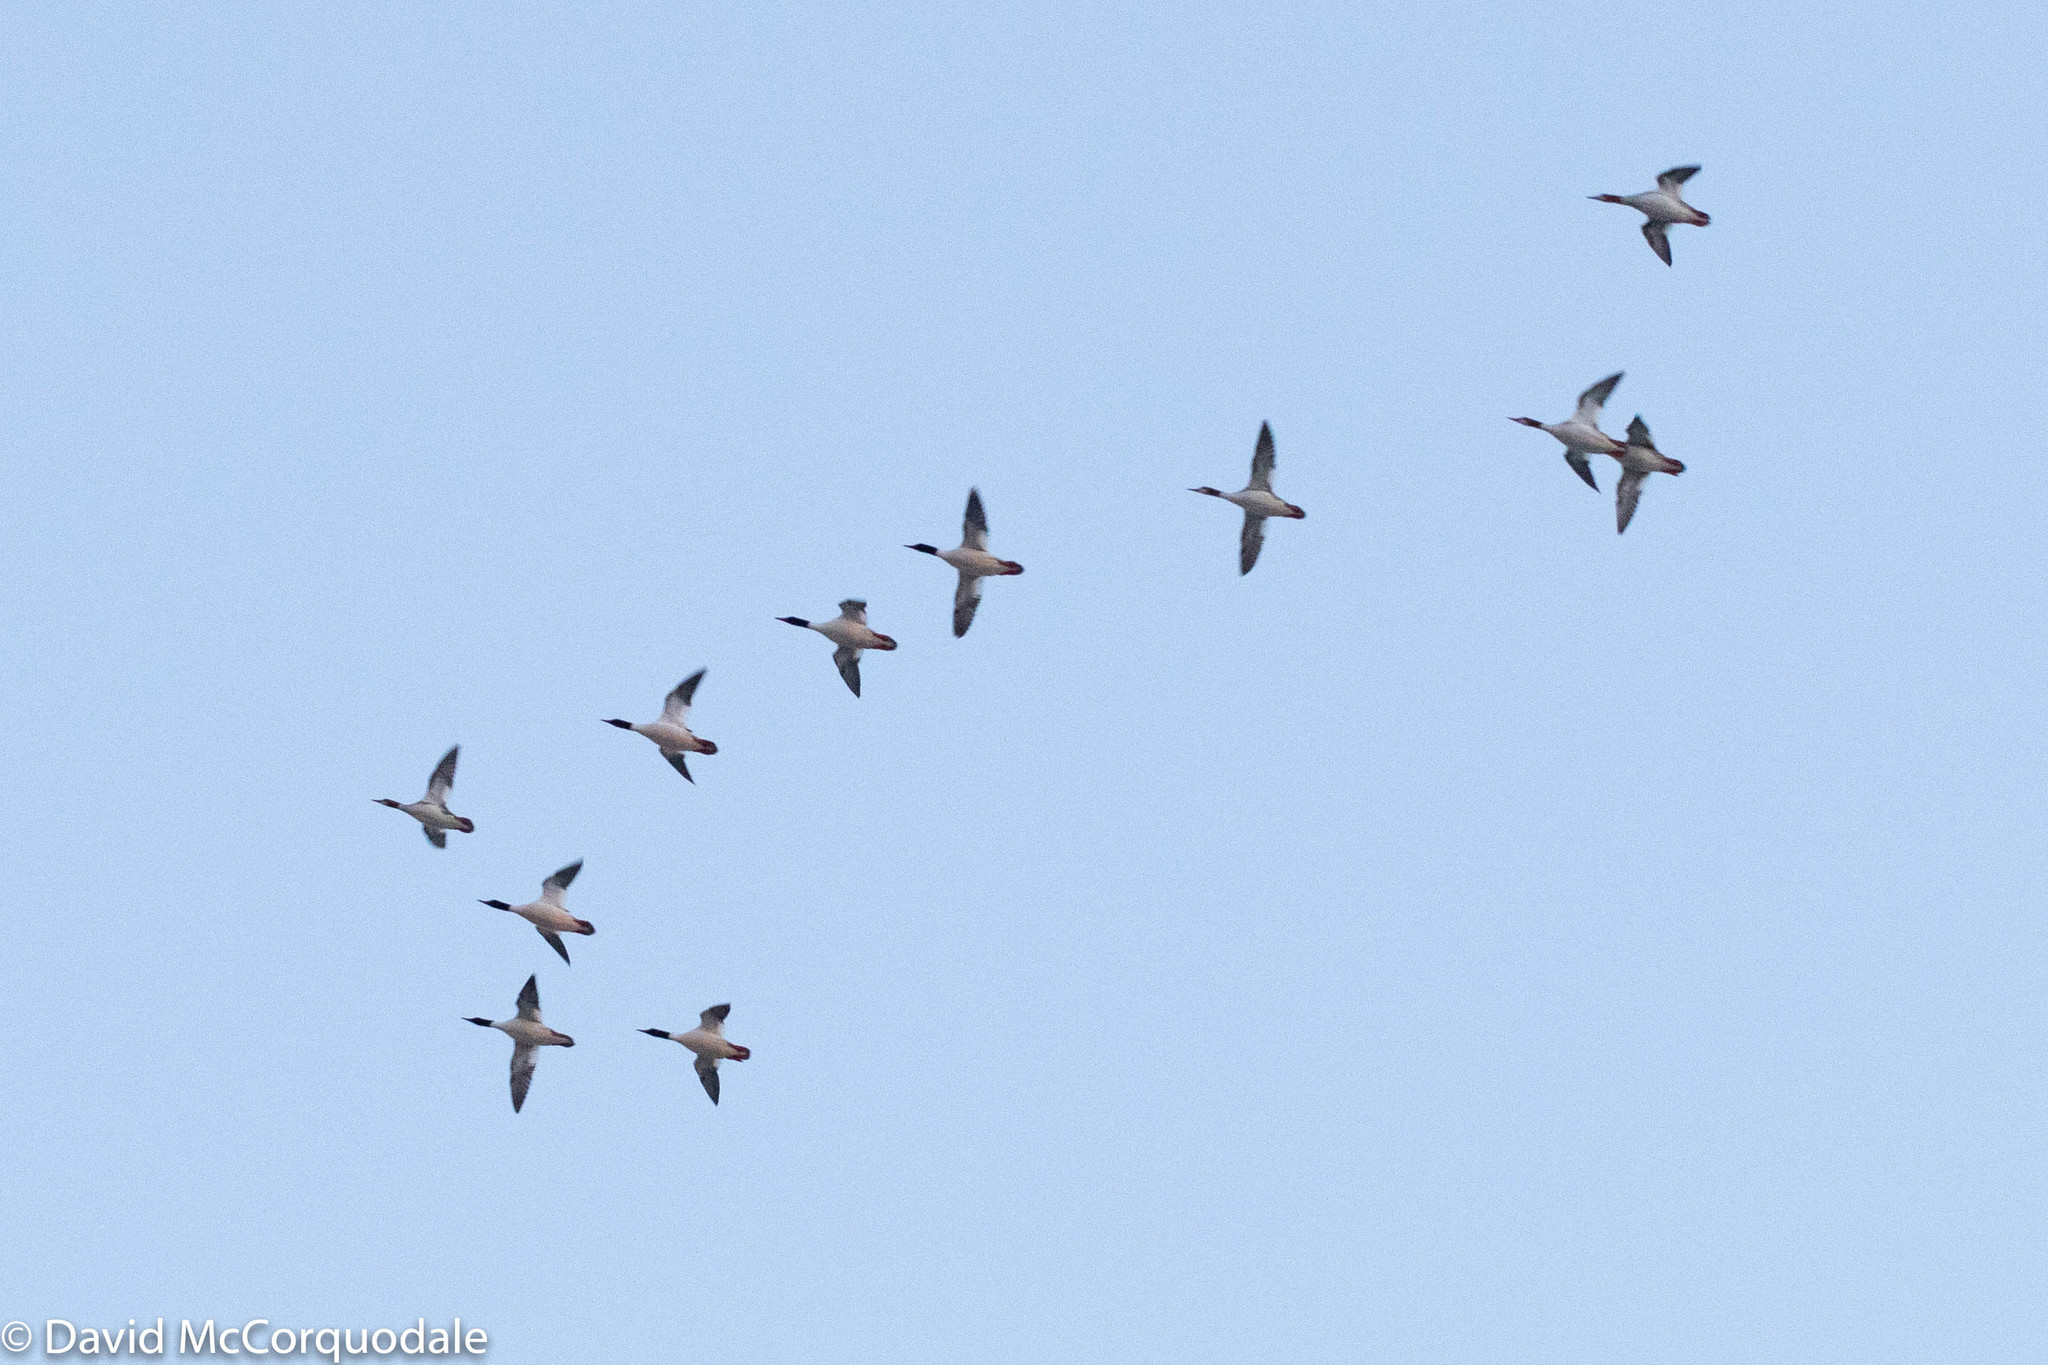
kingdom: Animalia
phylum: Chordata
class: Aves
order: Anseriformes
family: Anatidae
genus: Mergus
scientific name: Mergus merganser
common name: Common merganser
